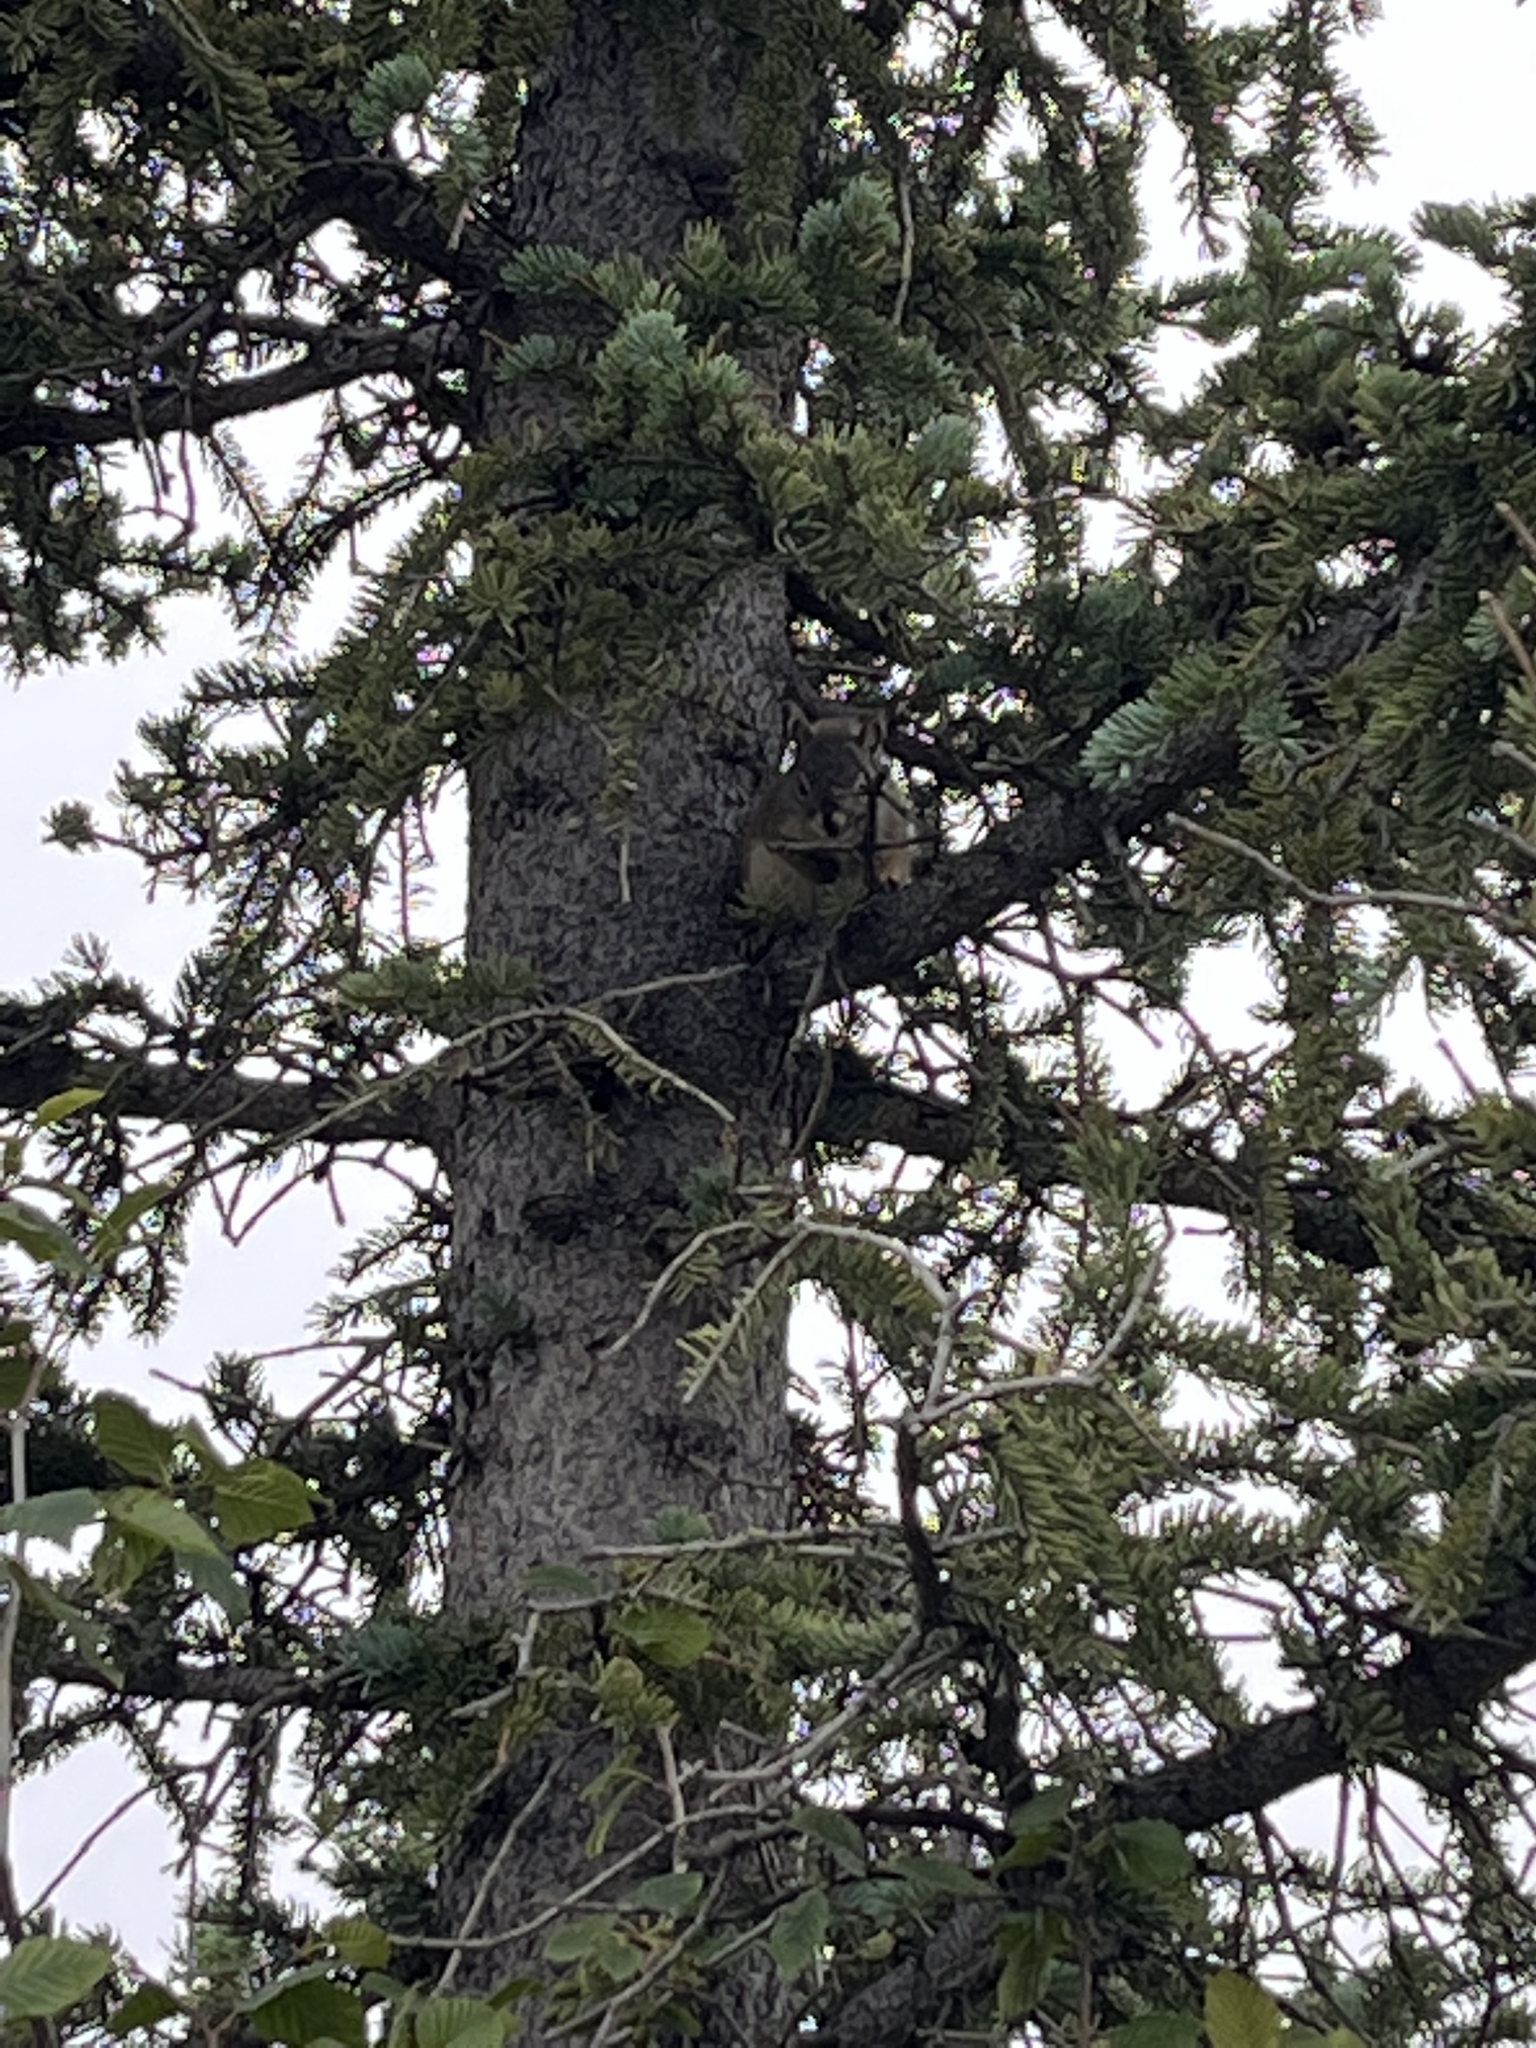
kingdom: Animalia
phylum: Chordata
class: Mammalia
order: Rodentia
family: Sciuridae
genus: Tamiasciurus
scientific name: Tamiasciurus hudsonicus
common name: Red squirrel
